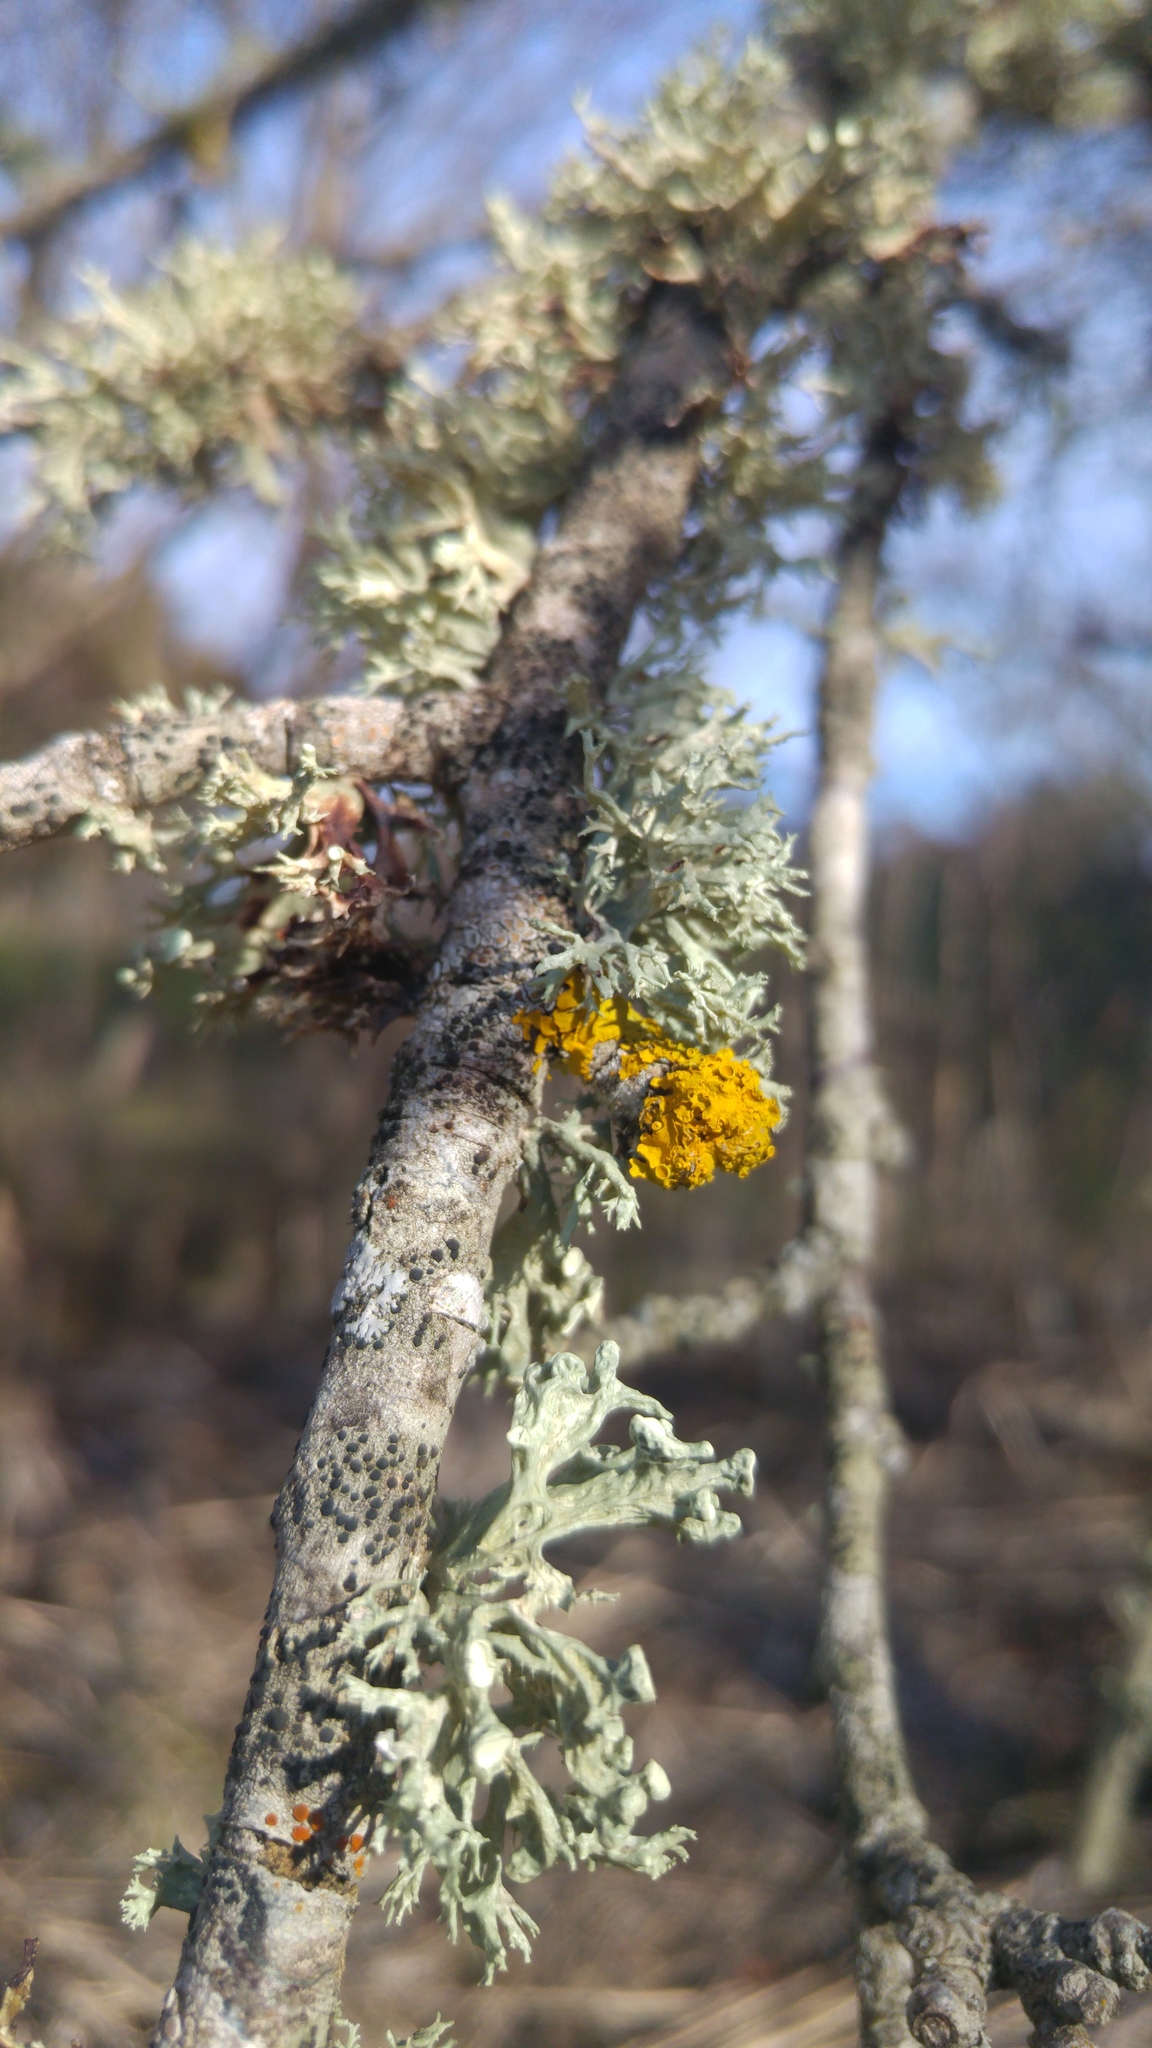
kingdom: Fungi
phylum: Ascomycota
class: Lecanoromycetes
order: Teloschistales
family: Teloschistaceae
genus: Xanthoria
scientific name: Xanthoria parietina
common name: Common orange lichen
